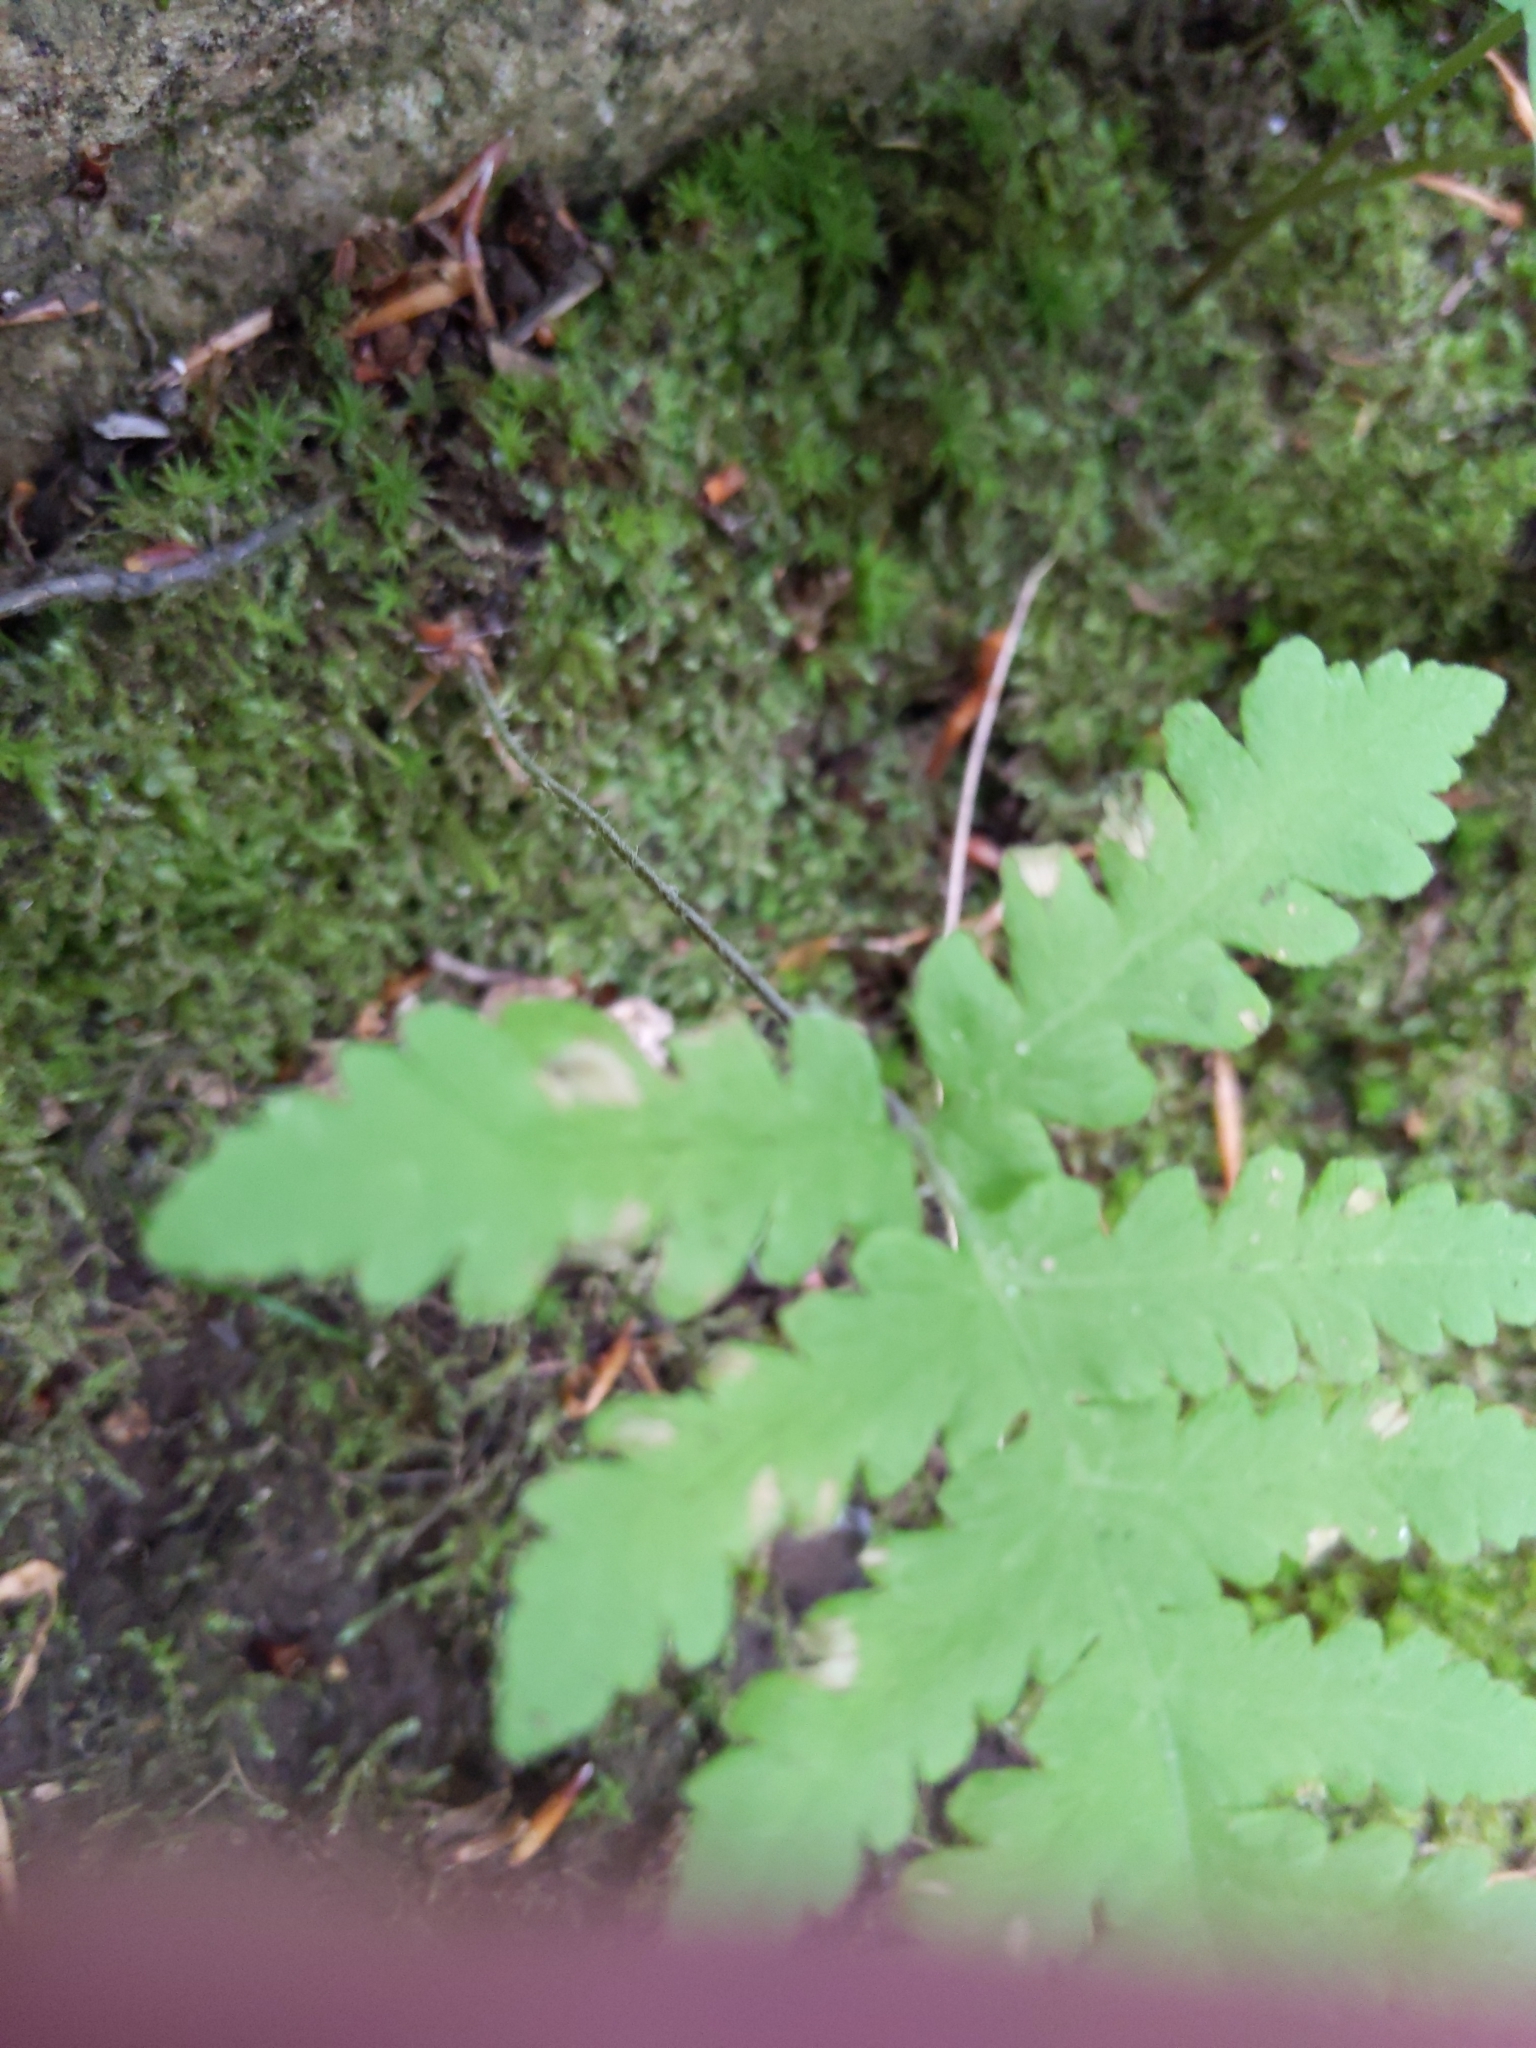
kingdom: Plantae
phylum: Tracheophyta
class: Polypodiopsida
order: Polypodiales
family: Thelypteridaceae
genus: Phegopteris
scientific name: Phegopteris connectilis
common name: Beech fern
